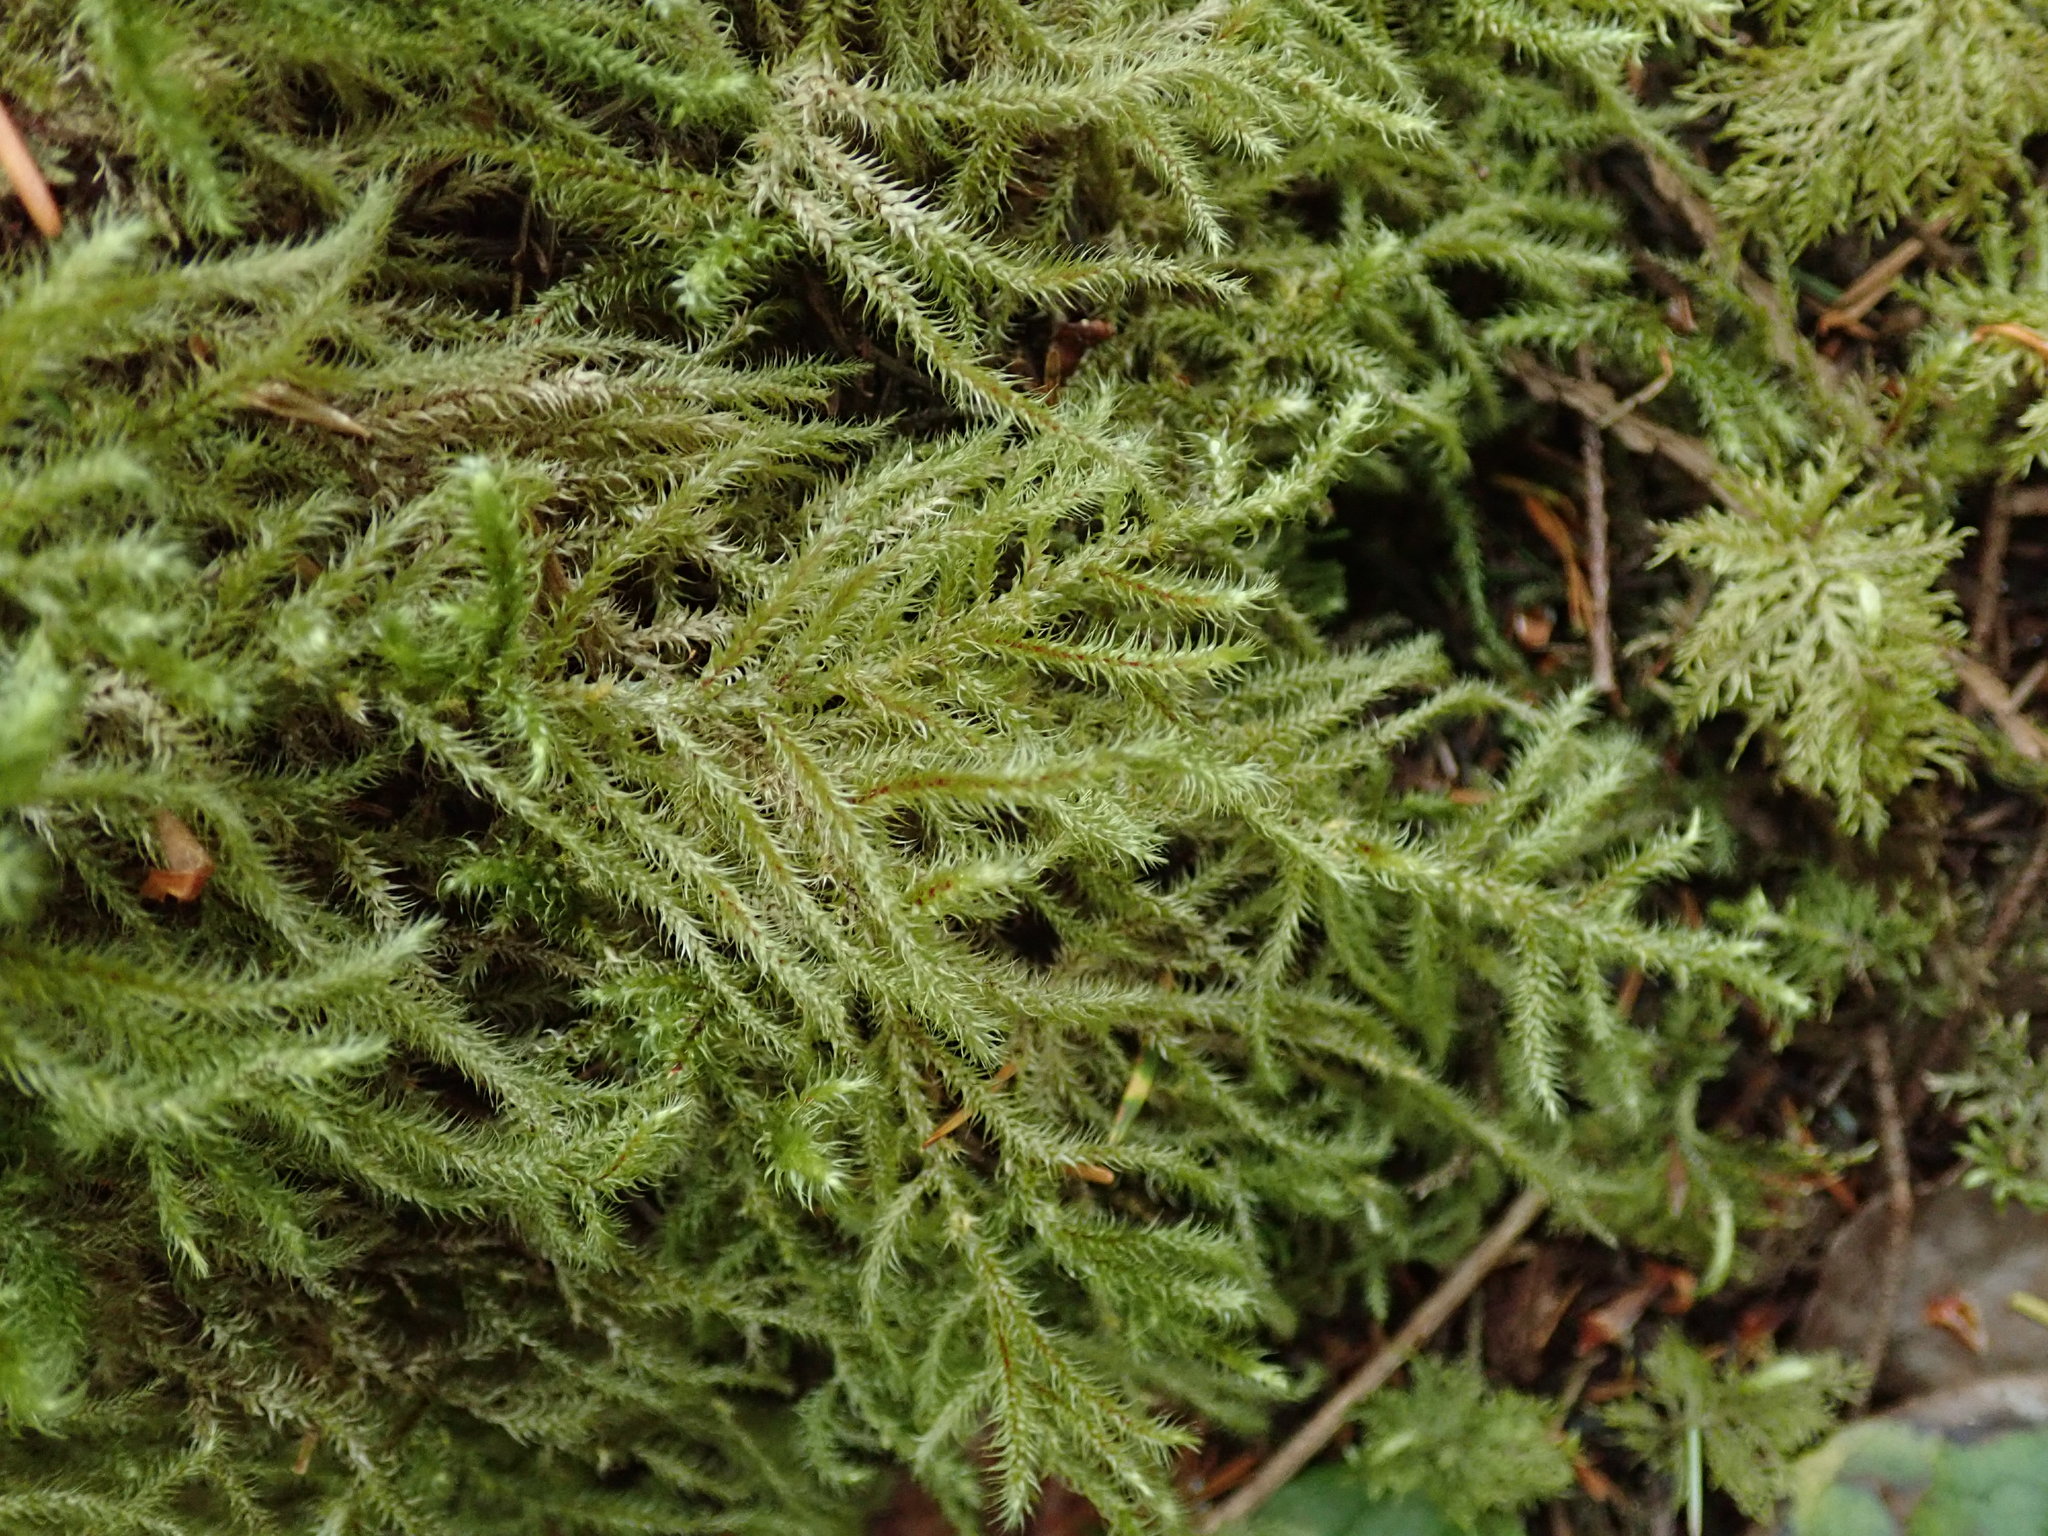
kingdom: Plantae
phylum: Bryophyta
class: Bryopsida
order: Hypnales
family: Hylocomiaceae
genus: Rhytidiadelphus
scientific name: Rhytidiadelphus loreus
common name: Lanky moss
